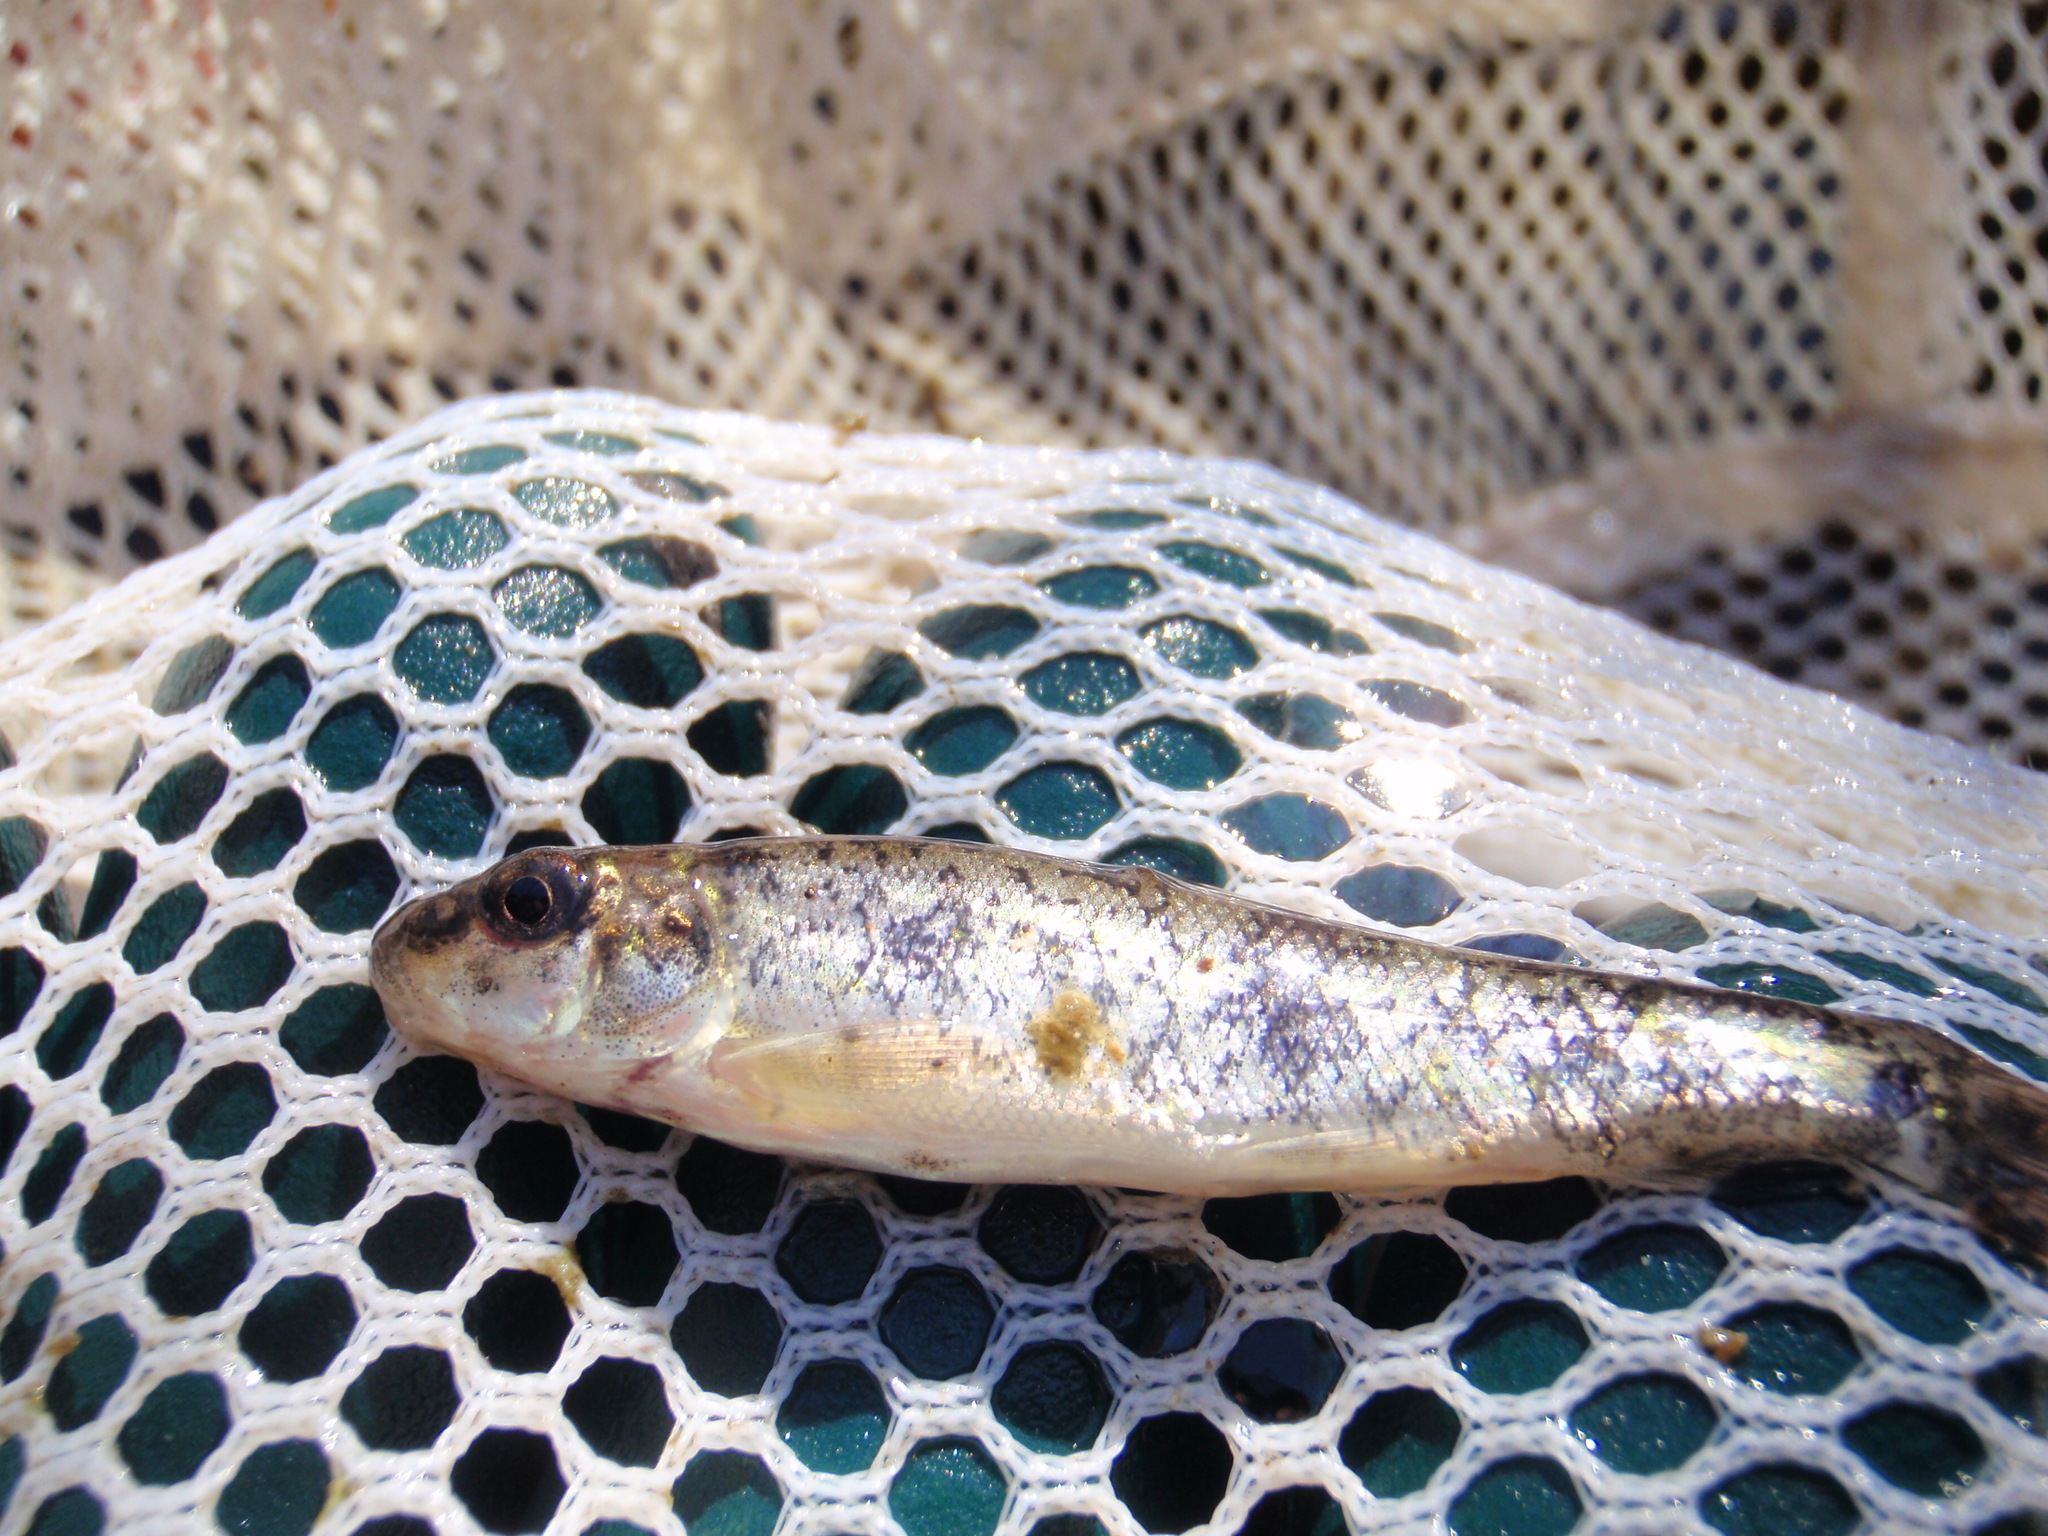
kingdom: Animalia
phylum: Chordata
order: Cypriniformes
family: Catostomidae
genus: Catostomus
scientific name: Catostomus commersonii
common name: White sucker
